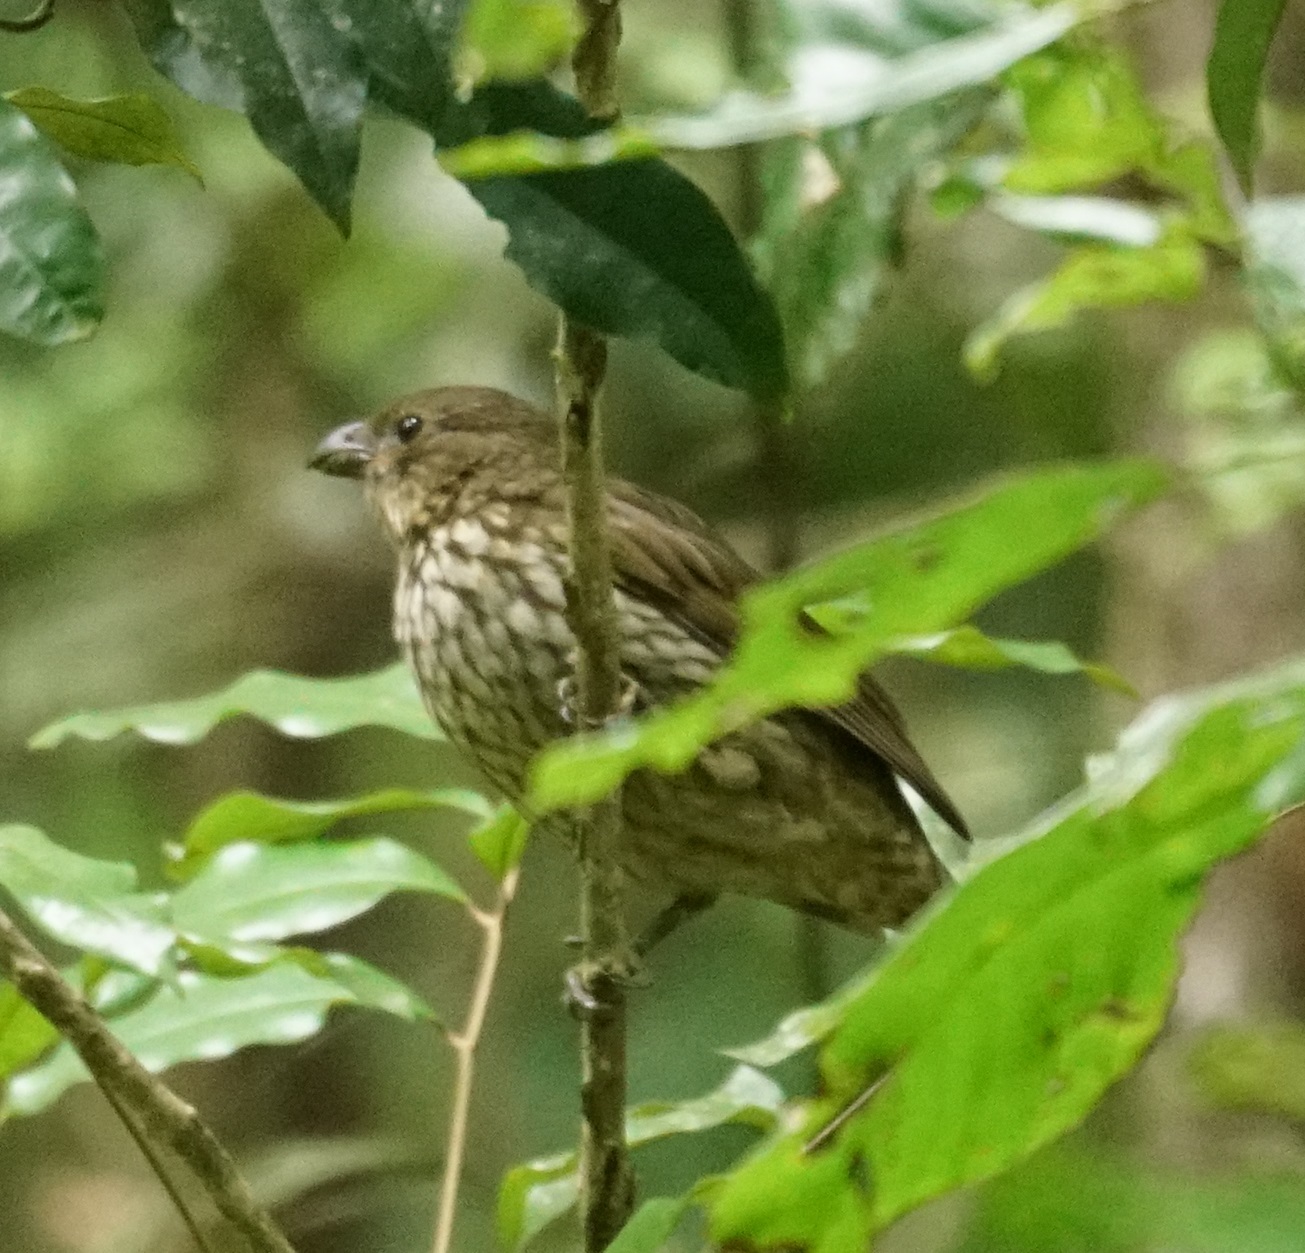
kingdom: Animalia
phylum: Chordata
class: Aves
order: Passeriformes
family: Ptilonorhynchidae
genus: Scenopoeetes
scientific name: Scenopoeetes dentirostris
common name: Tooth-billed bowerbird
